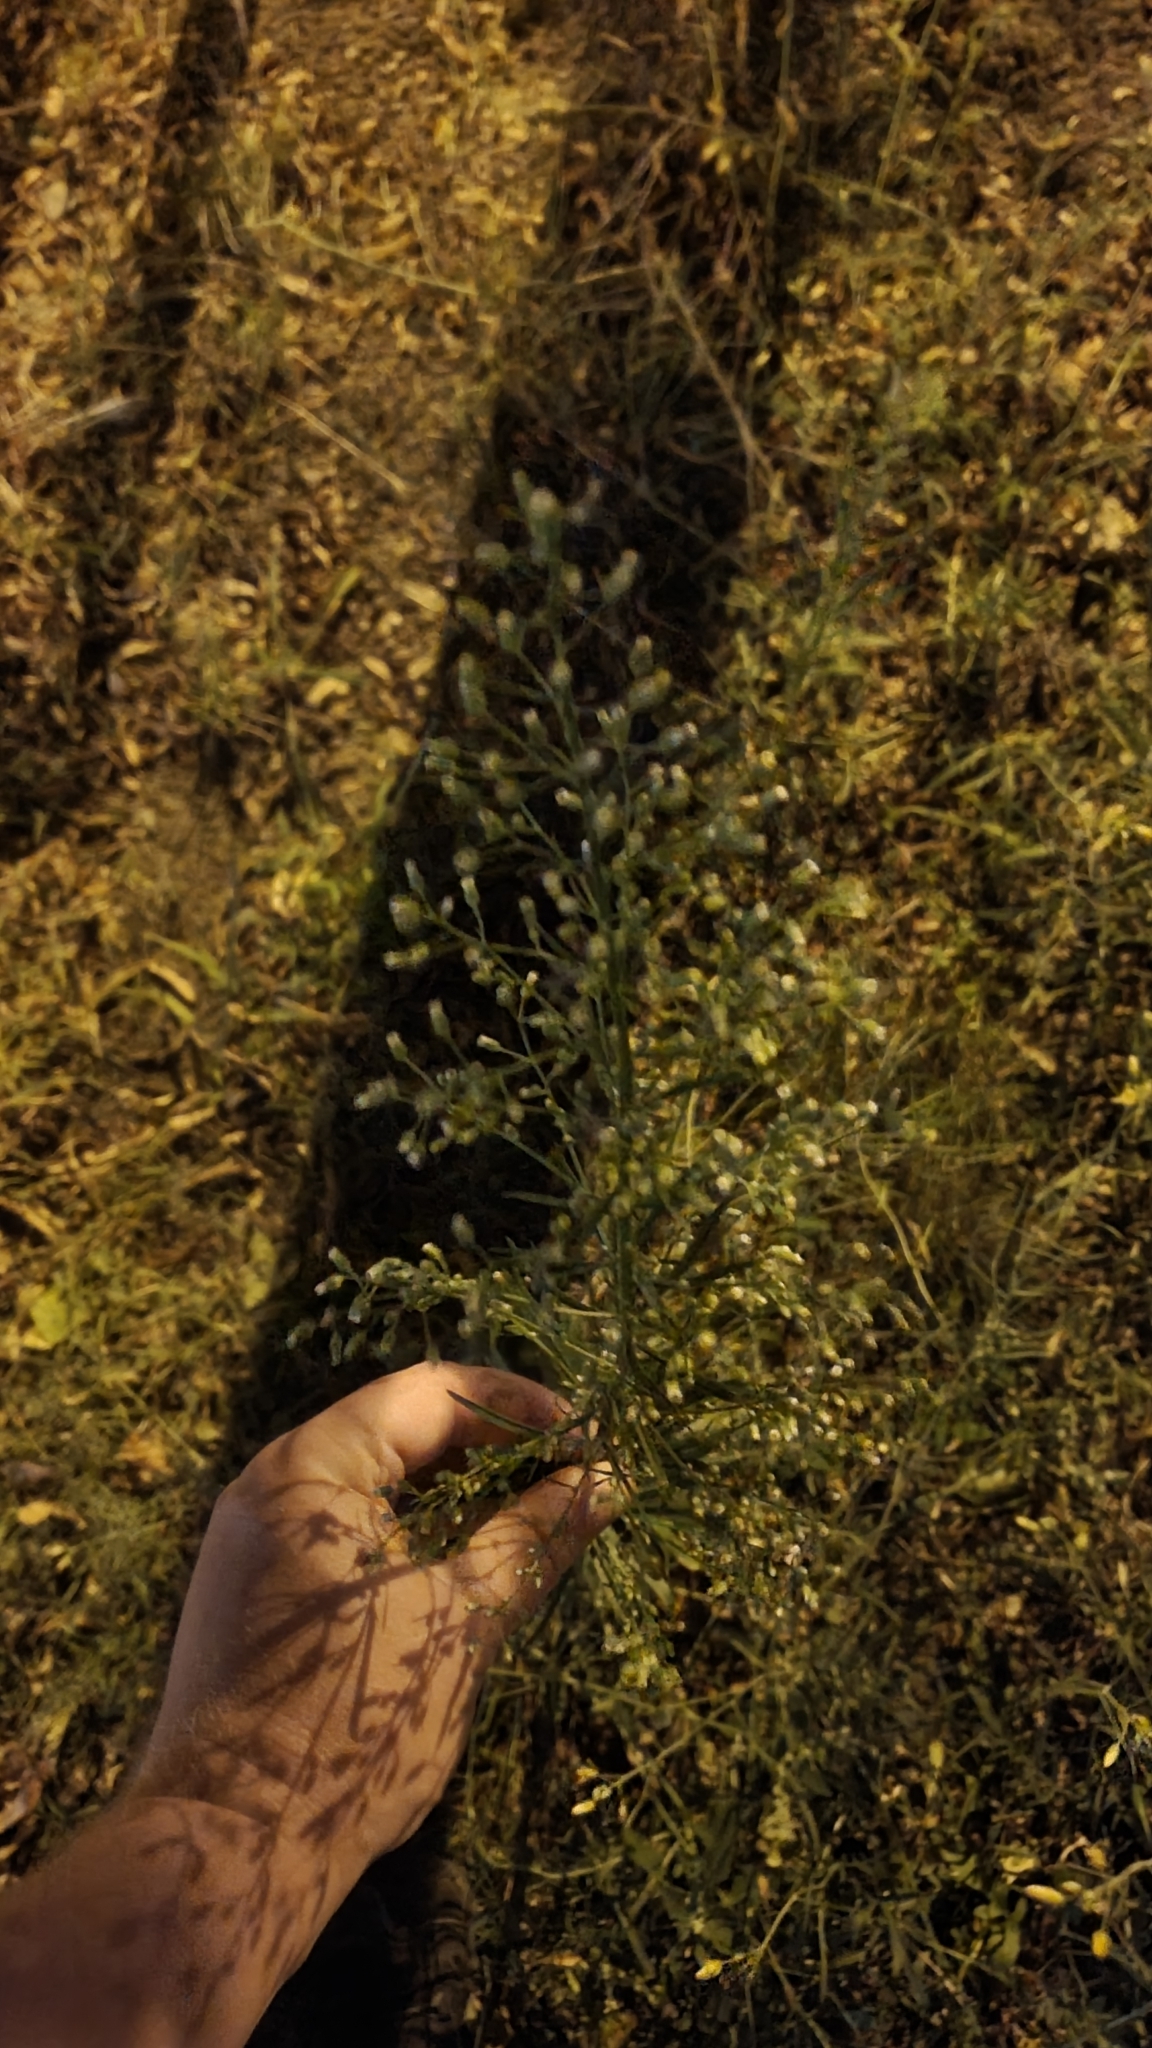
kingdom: Plantae
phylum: Tracheophyta
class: Magnoliopsida
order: Asterales
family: Asteraceae
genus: Erigeron
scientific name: Erigeron canadensis
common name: Canadian fleabane
